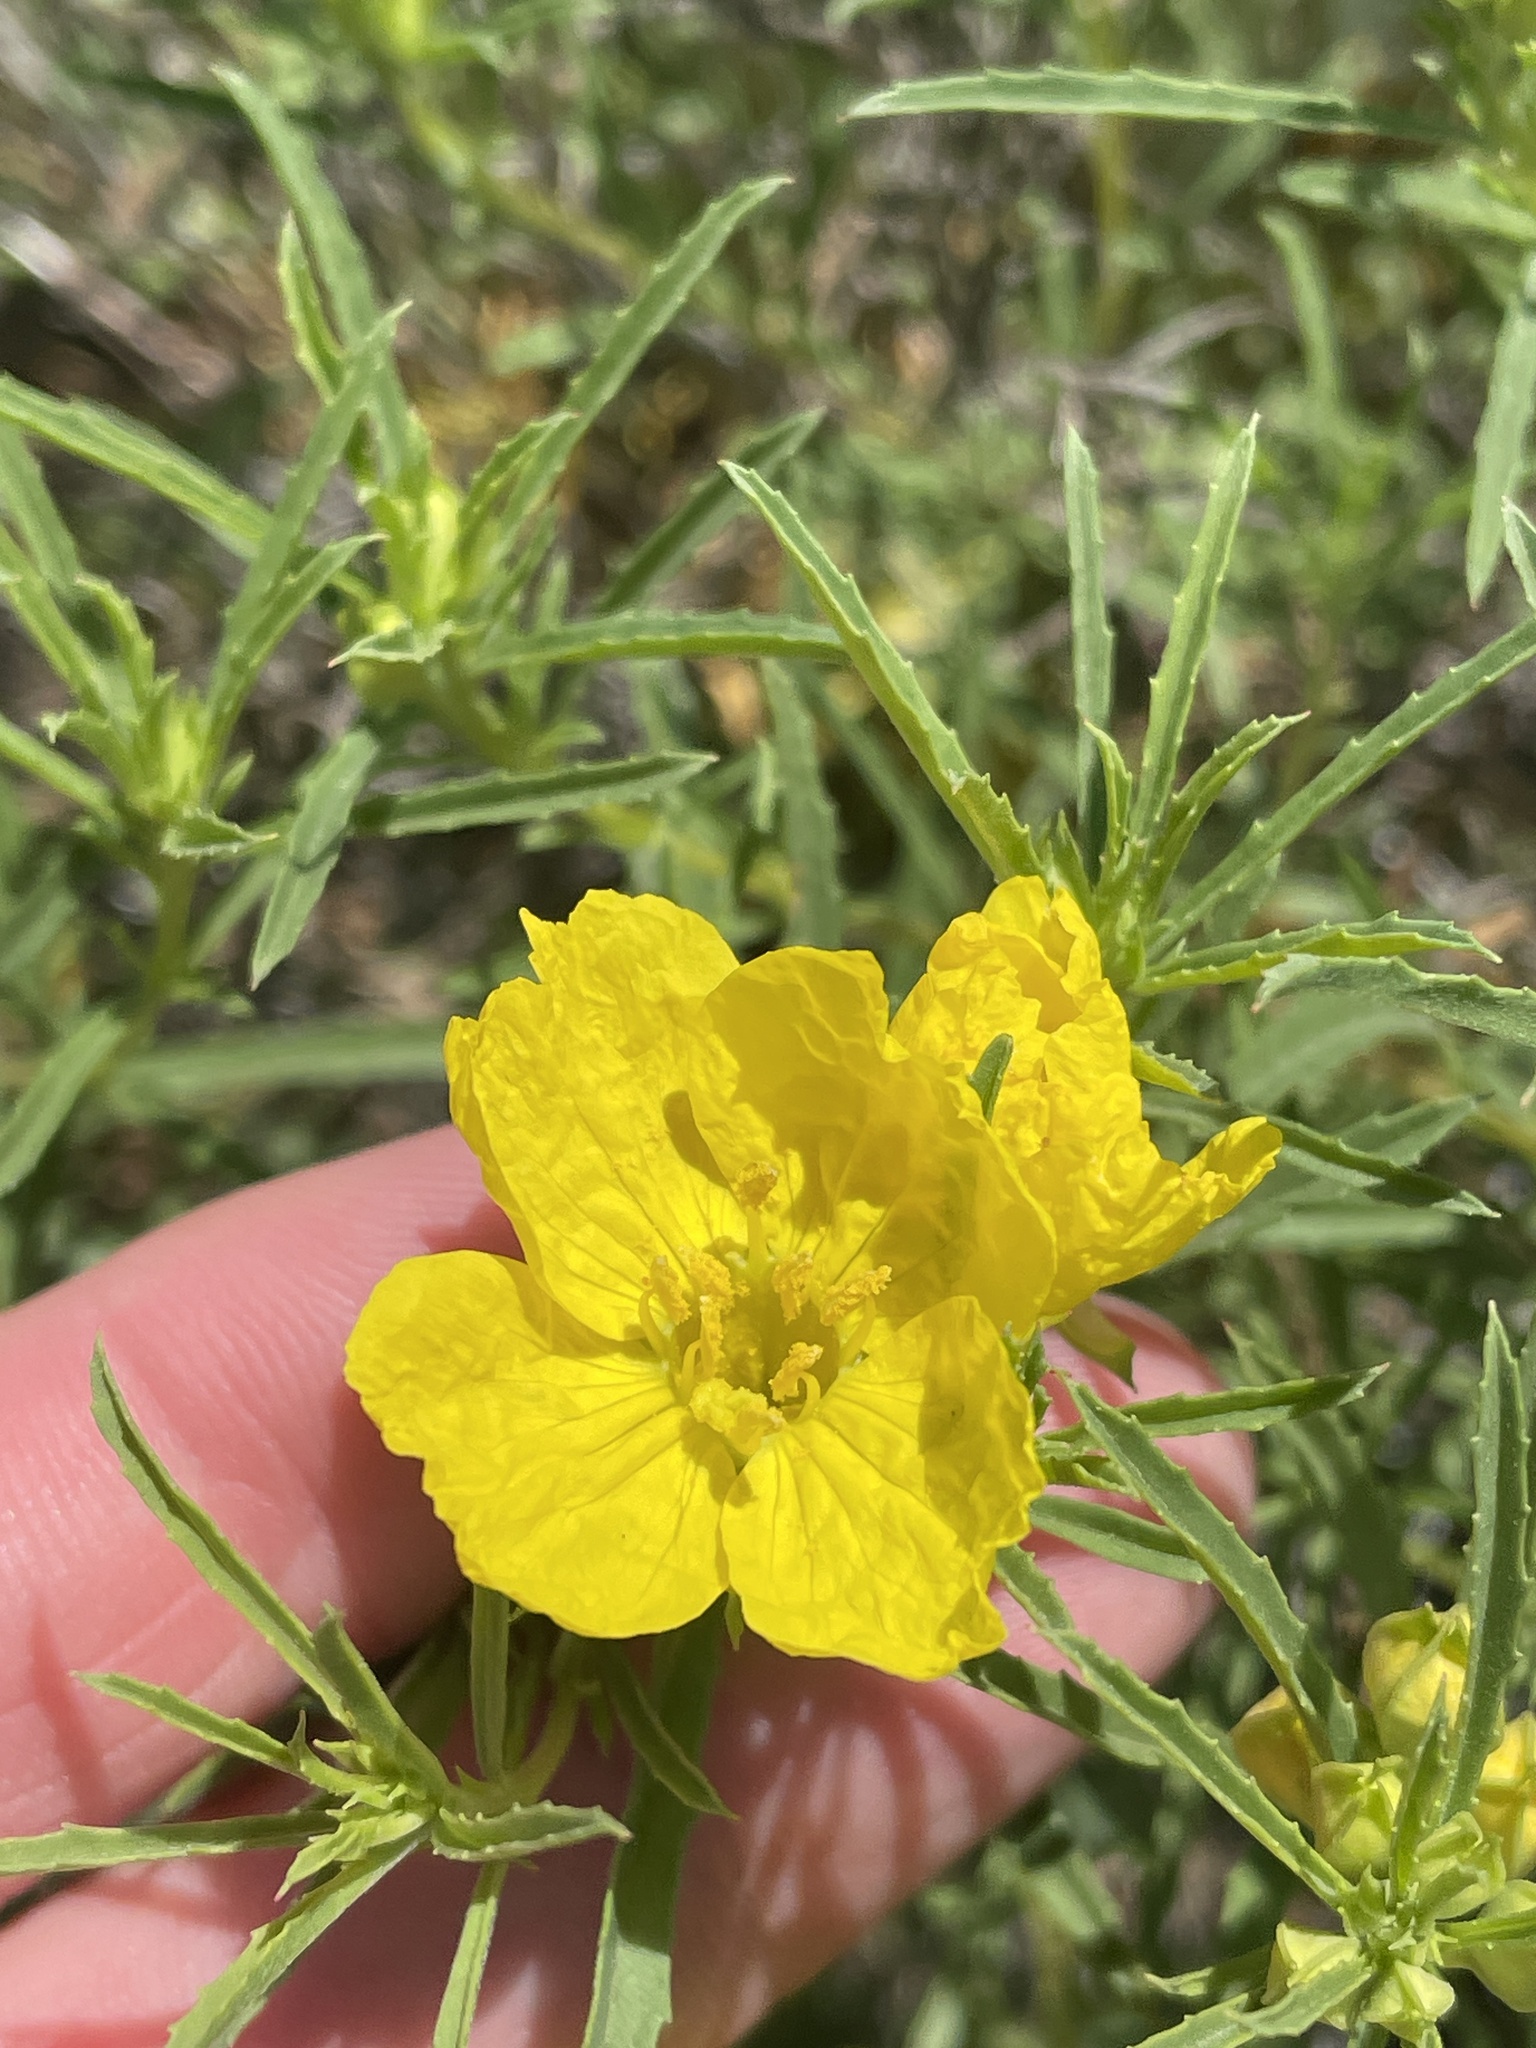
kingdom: Plantae
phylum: Tracheophyta
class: Magnoliopsida
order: Myrtales
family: Onagraceae
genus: Oenothera
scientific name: Oenothera
